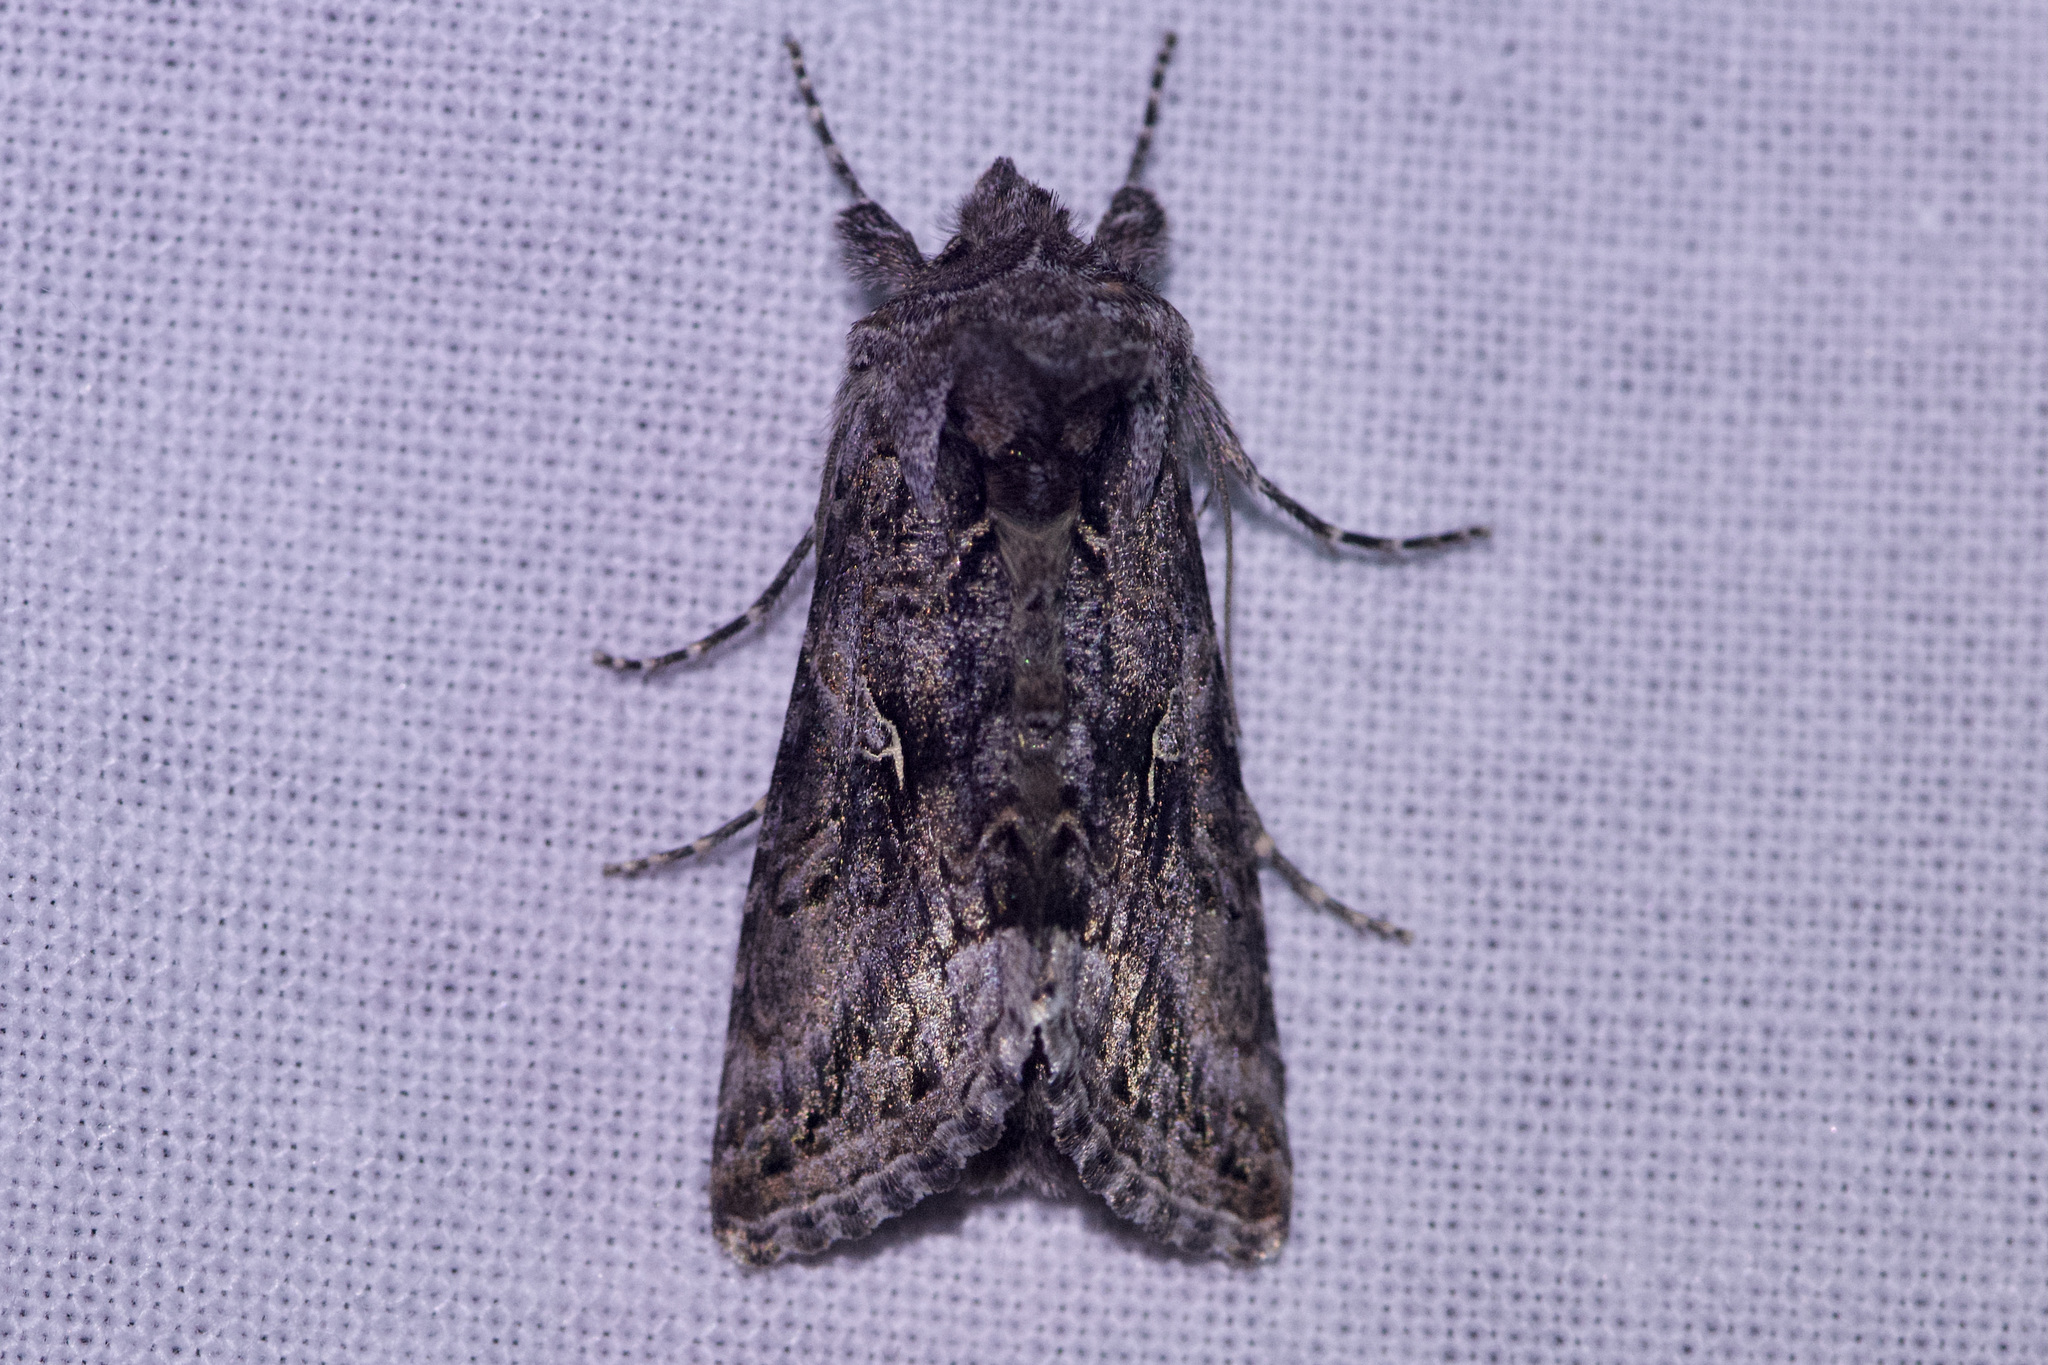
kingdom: Animalia
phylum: Arthropoda
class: Insecta
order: Lepidoptera
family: Noctuidae
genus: Autographa
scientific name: Autographa californica
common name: Alfalfa looper
